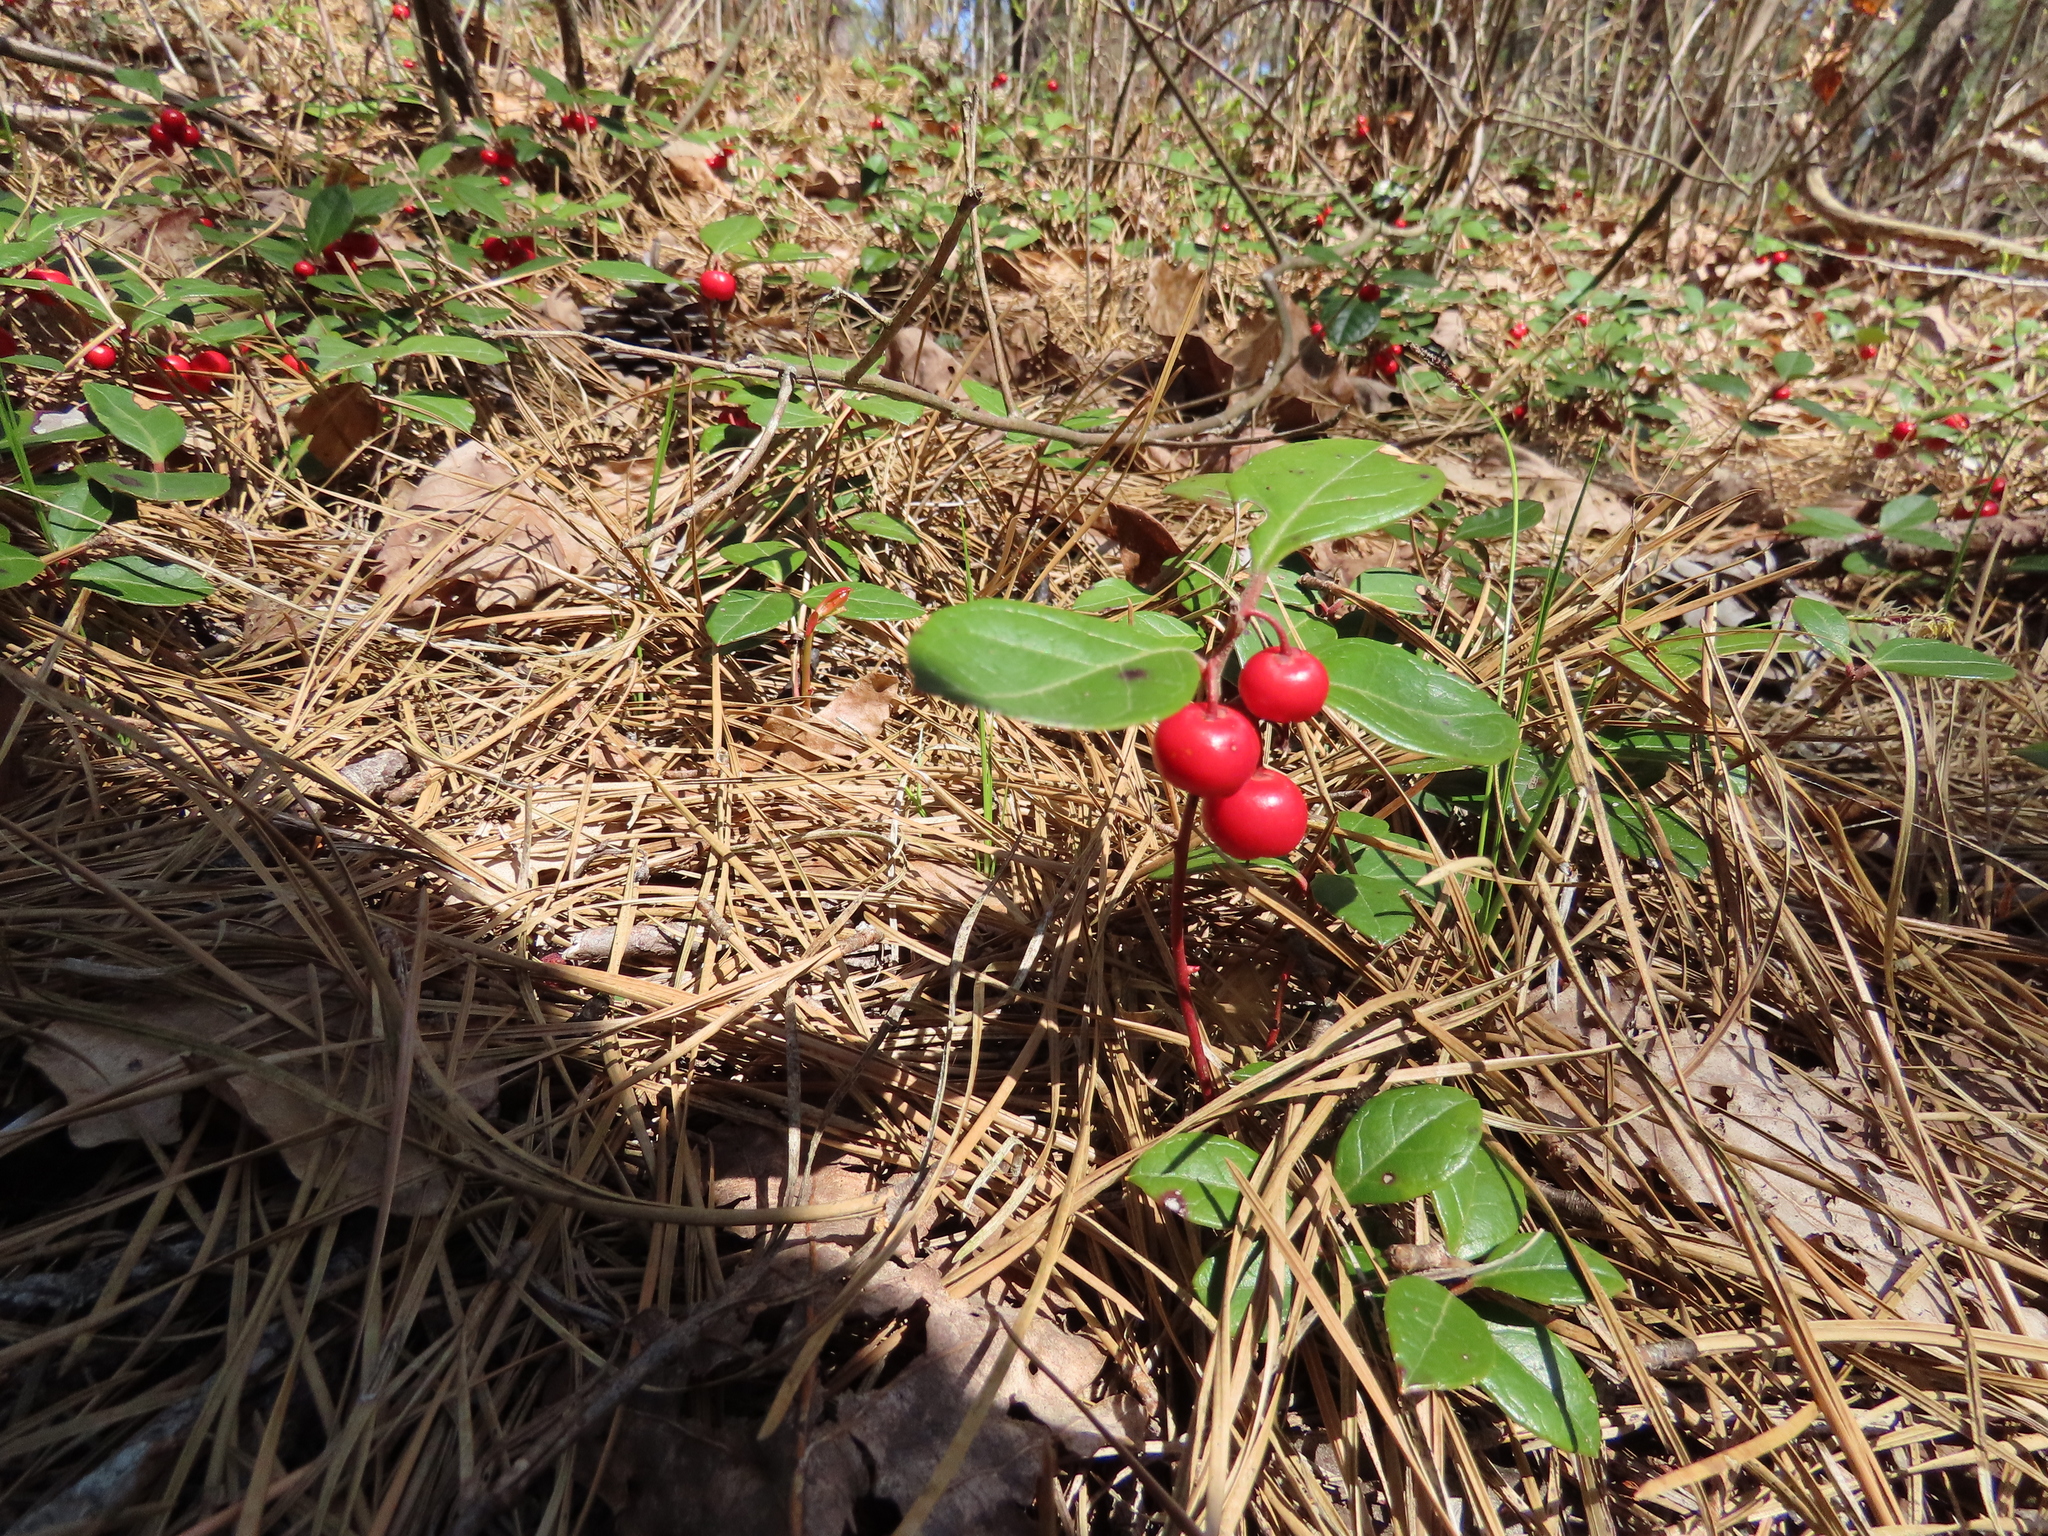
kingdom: Plantae
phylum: Tracheophyta
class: Magnoliopsida
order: Ericales
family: Ericaceae
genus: Gaultheria
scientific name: Gaultheria procumbens
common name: Checkerberry
